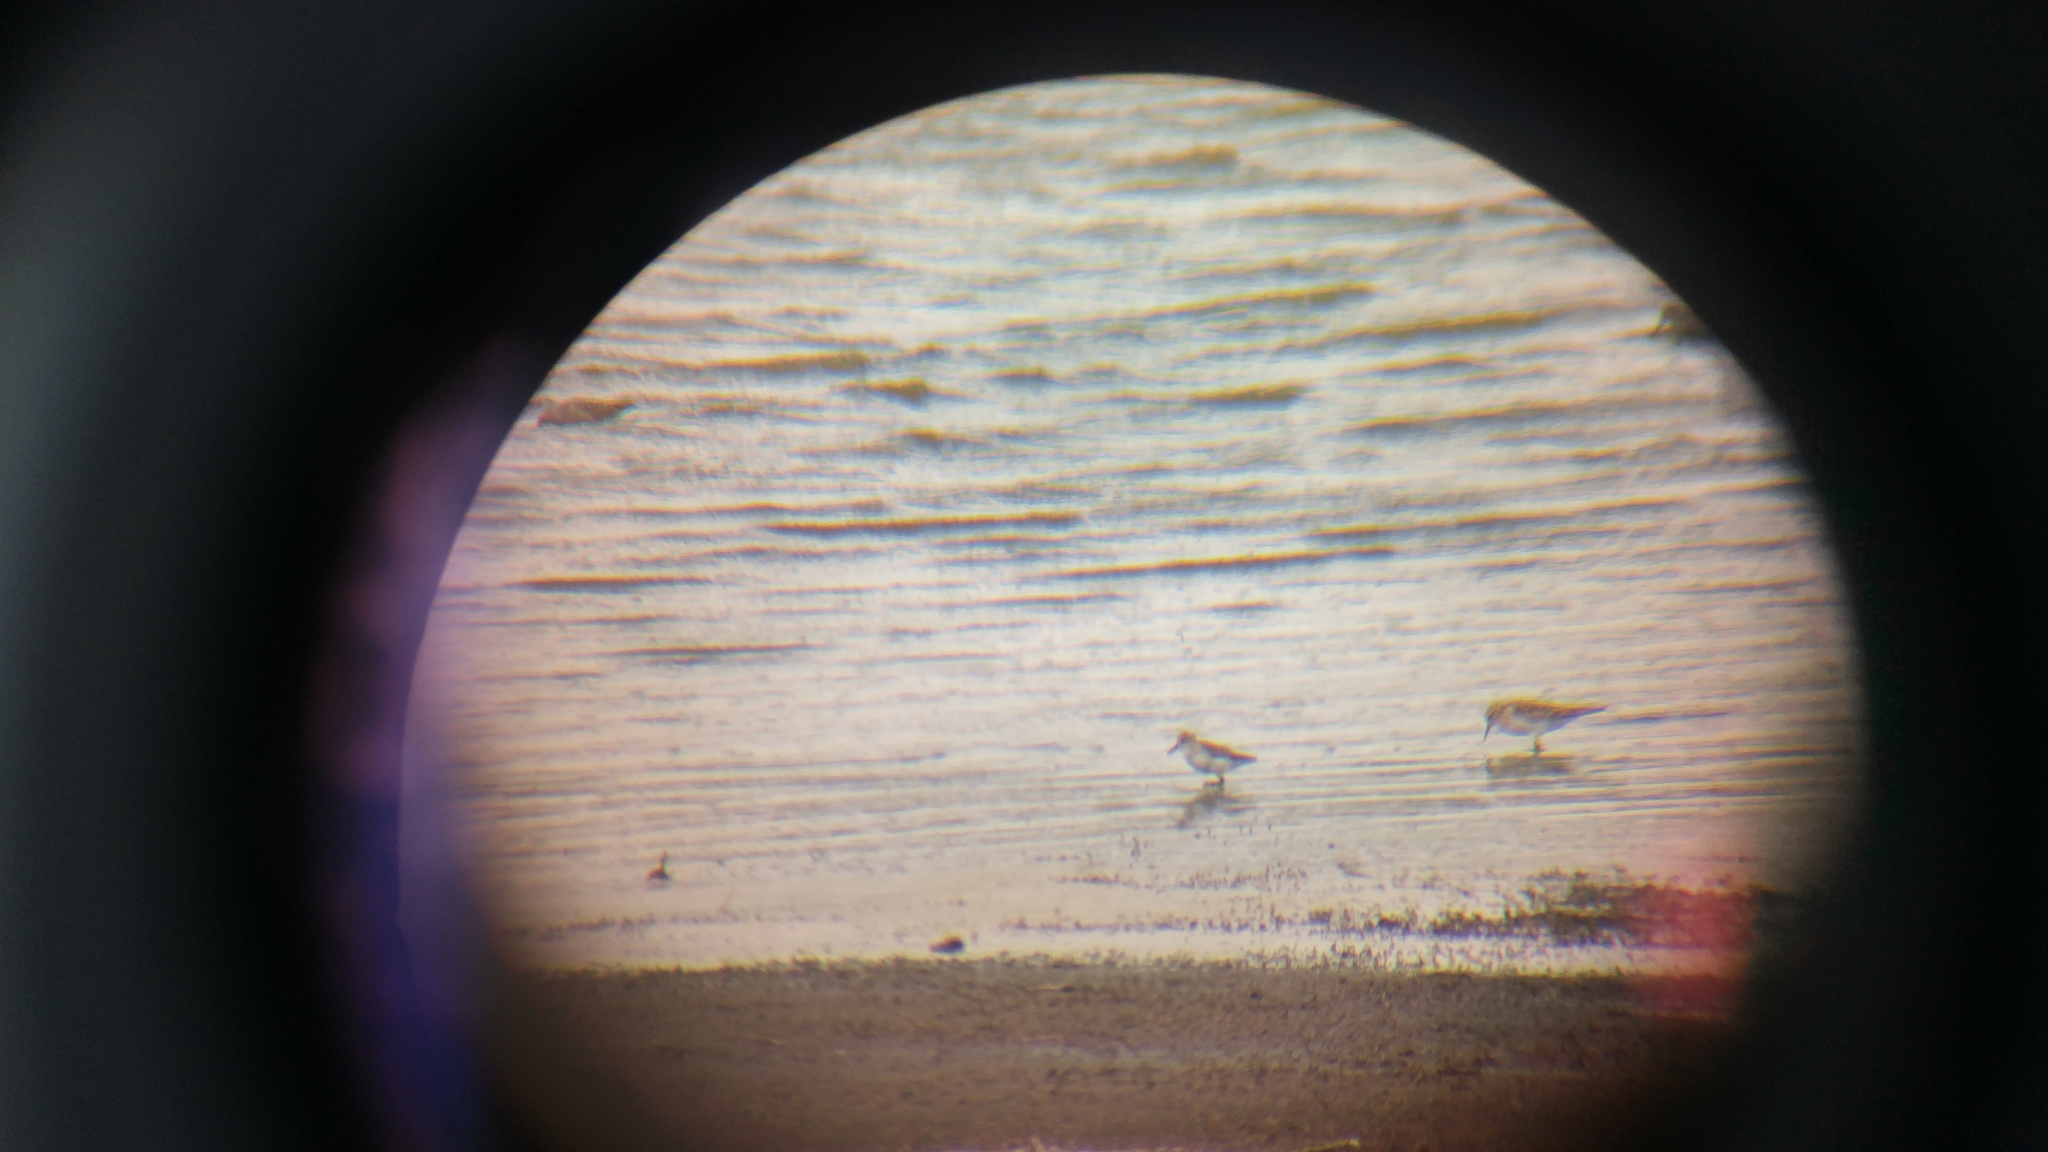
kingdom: Animalia
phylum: Chordata
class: Aves
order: Charadriiformes
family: Scolopacidae
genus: Calidris
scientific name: Calidris bairdii
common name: Baird's sandpiper
